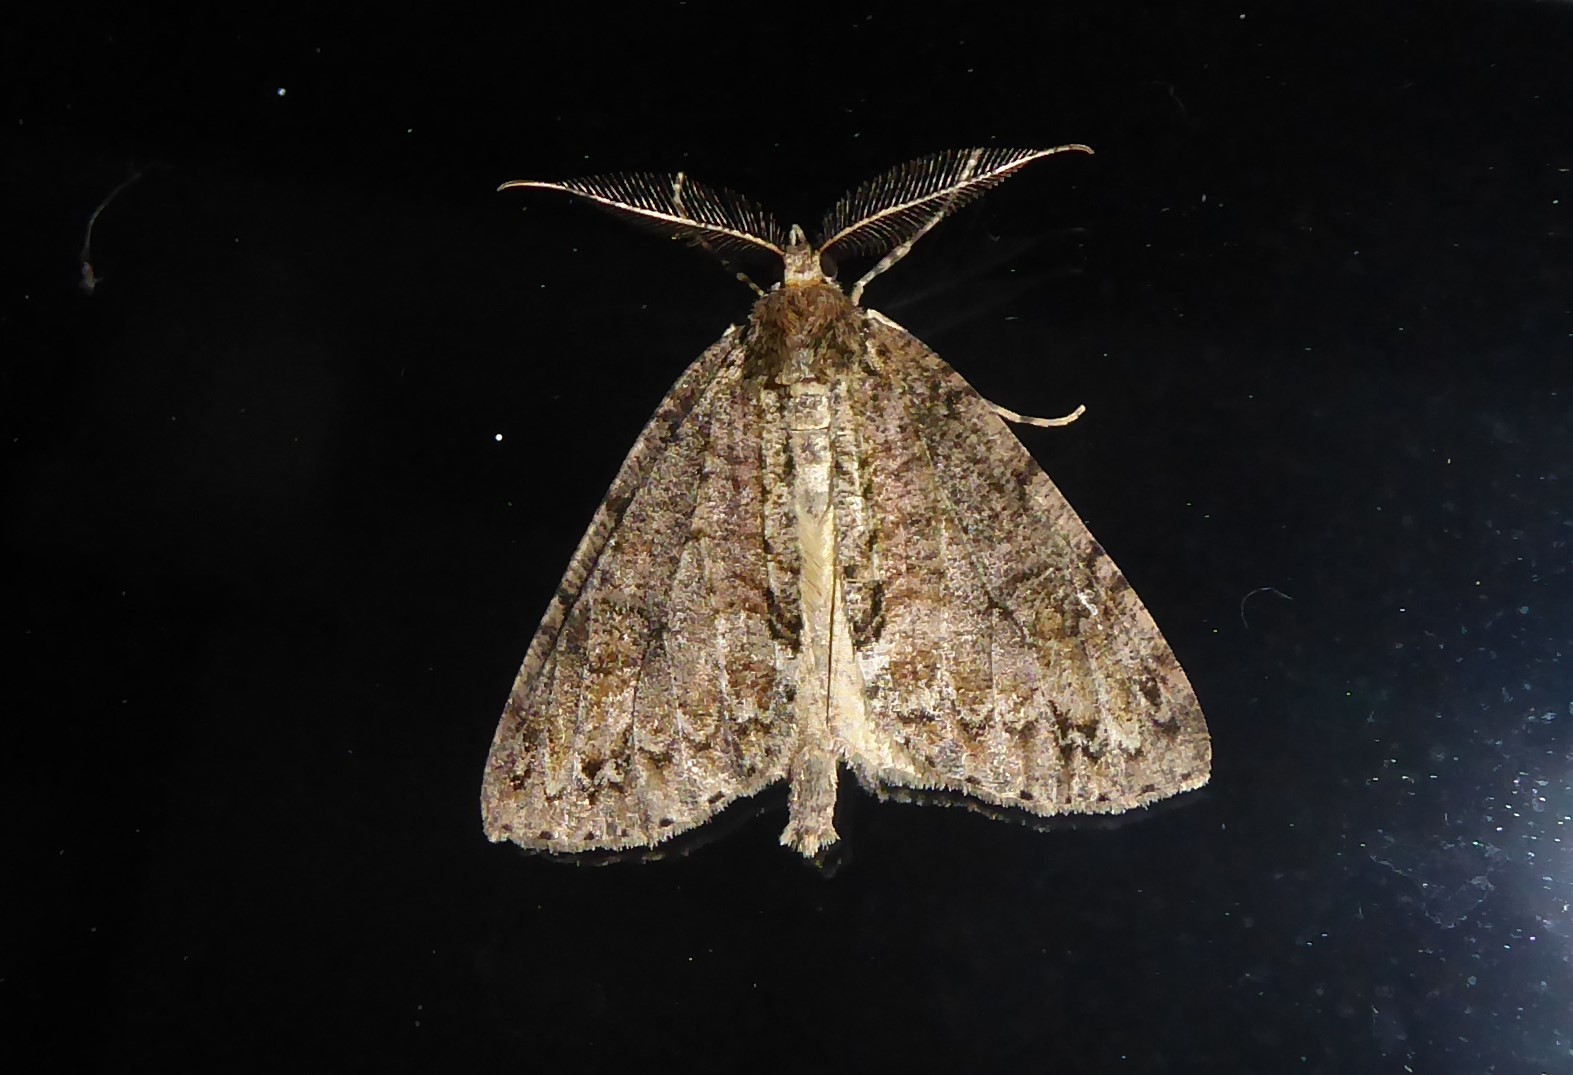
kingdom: Animalia
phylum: Arthropoda
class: Insecta
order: Lepidoptera
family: Geometridae
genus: Pseudocoremia
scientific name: Pseudocoremia suavis
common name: Common forest looper
